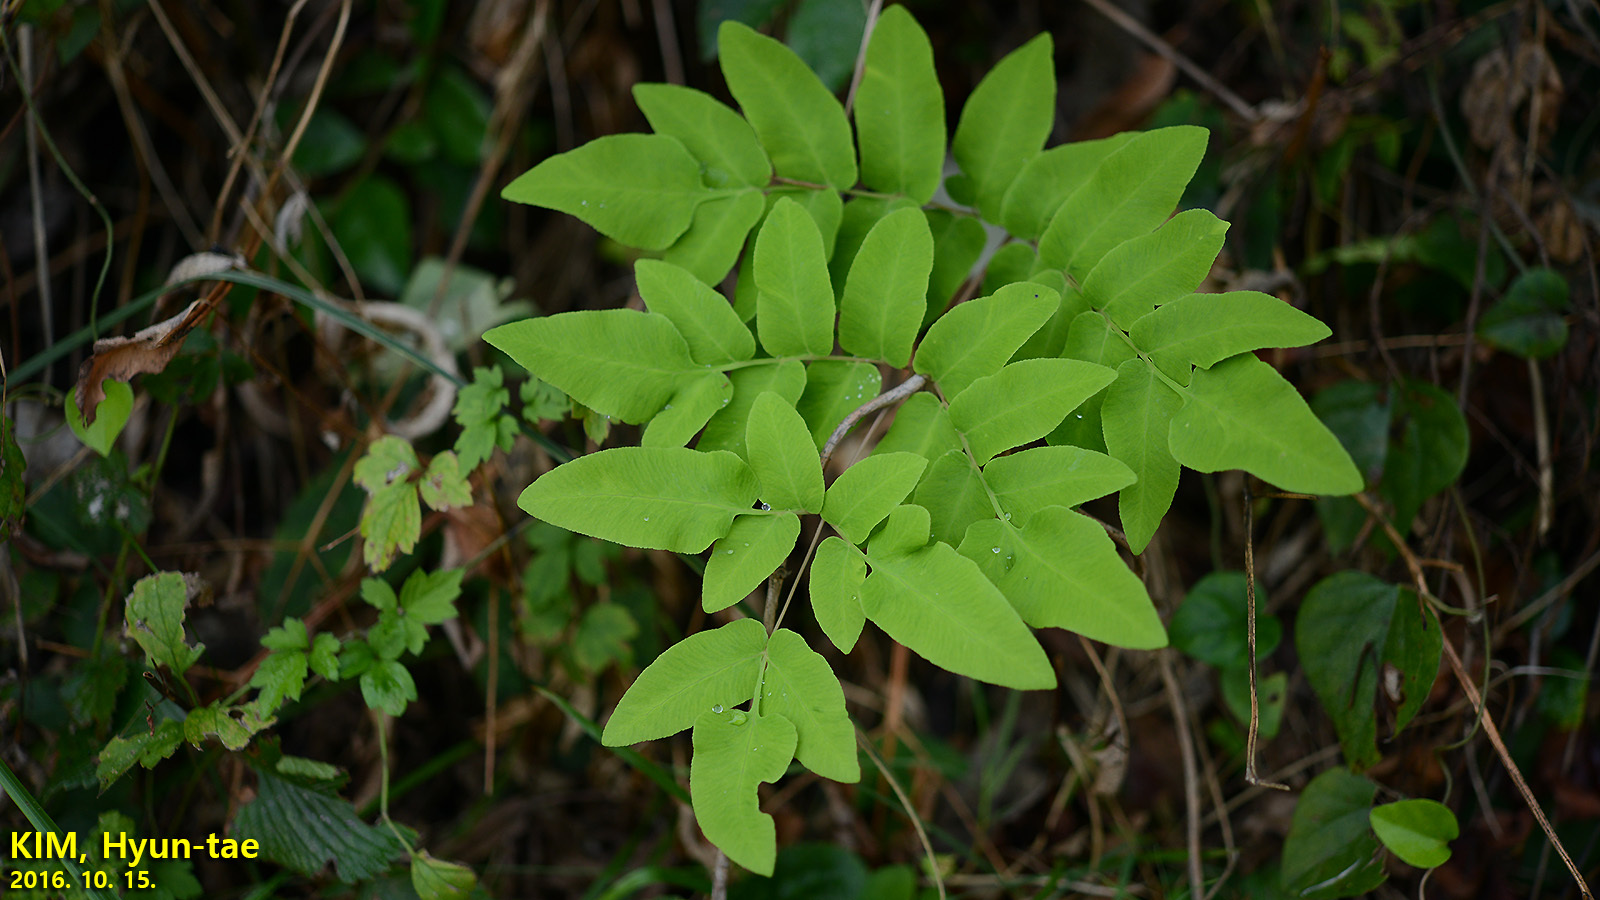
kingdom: Plantae
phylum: Tracheophyta
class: Polypodiopsida
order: Osmundales
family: Osmundaceae
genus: Osmunda
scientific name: Osmunda japonica
